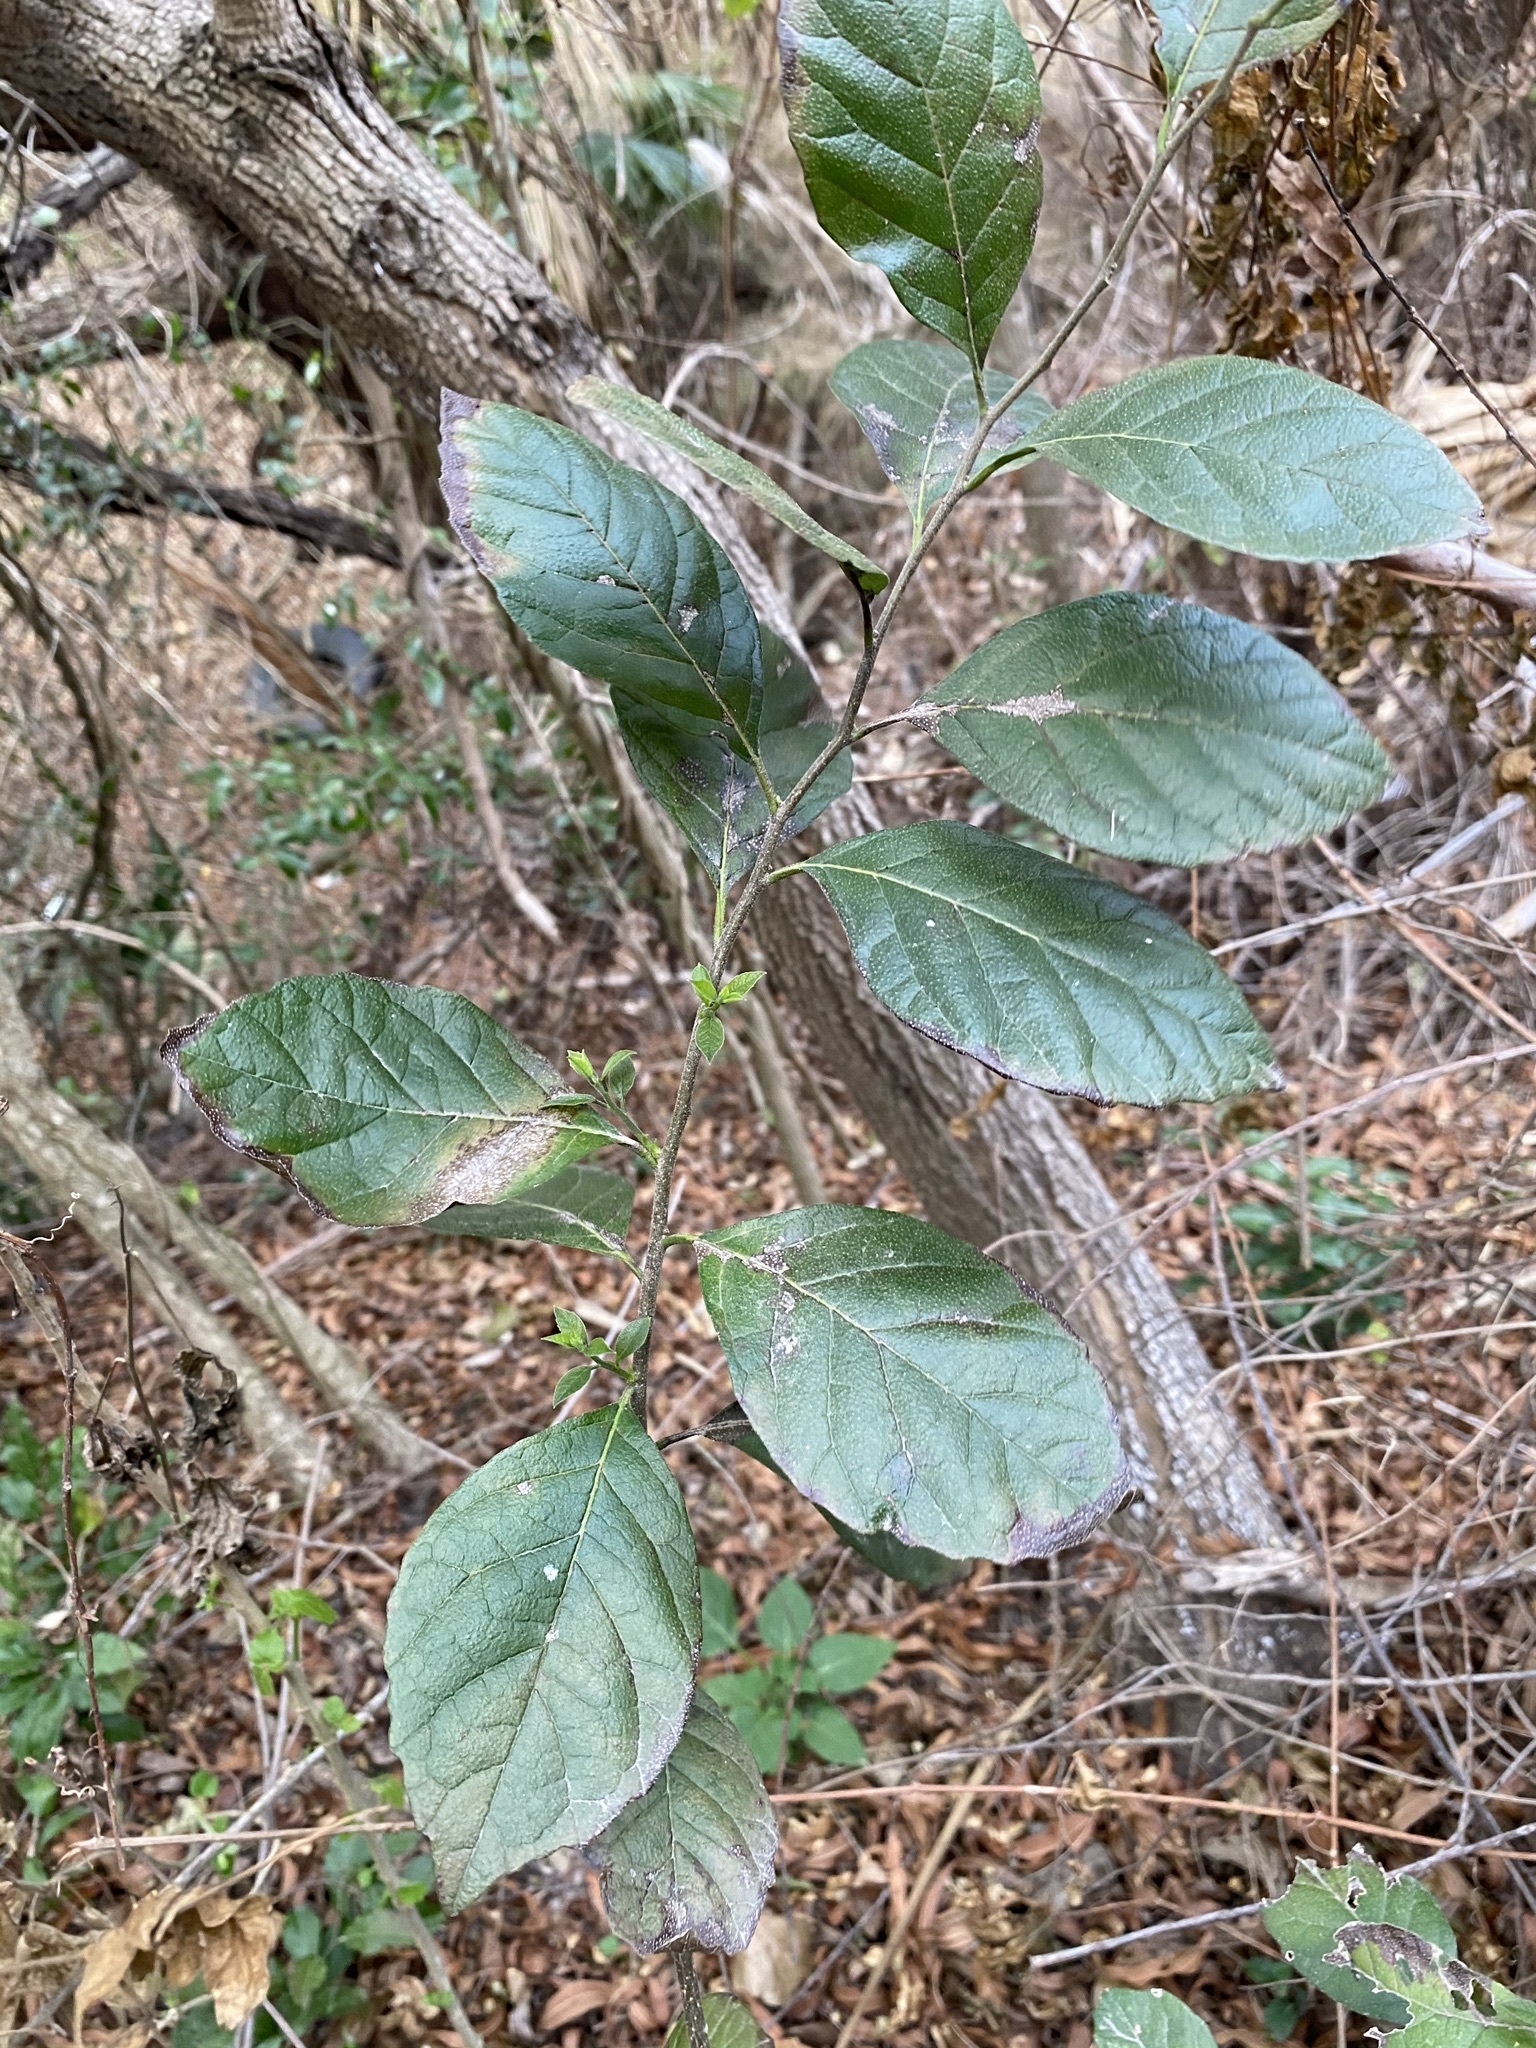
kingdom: Plantae
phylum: Tracheophyta
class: Magnoliopsida
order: Boraginales
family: Ehretiaceae
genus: Ehretia
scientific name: Ehretia anacua
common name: Sugarberry
